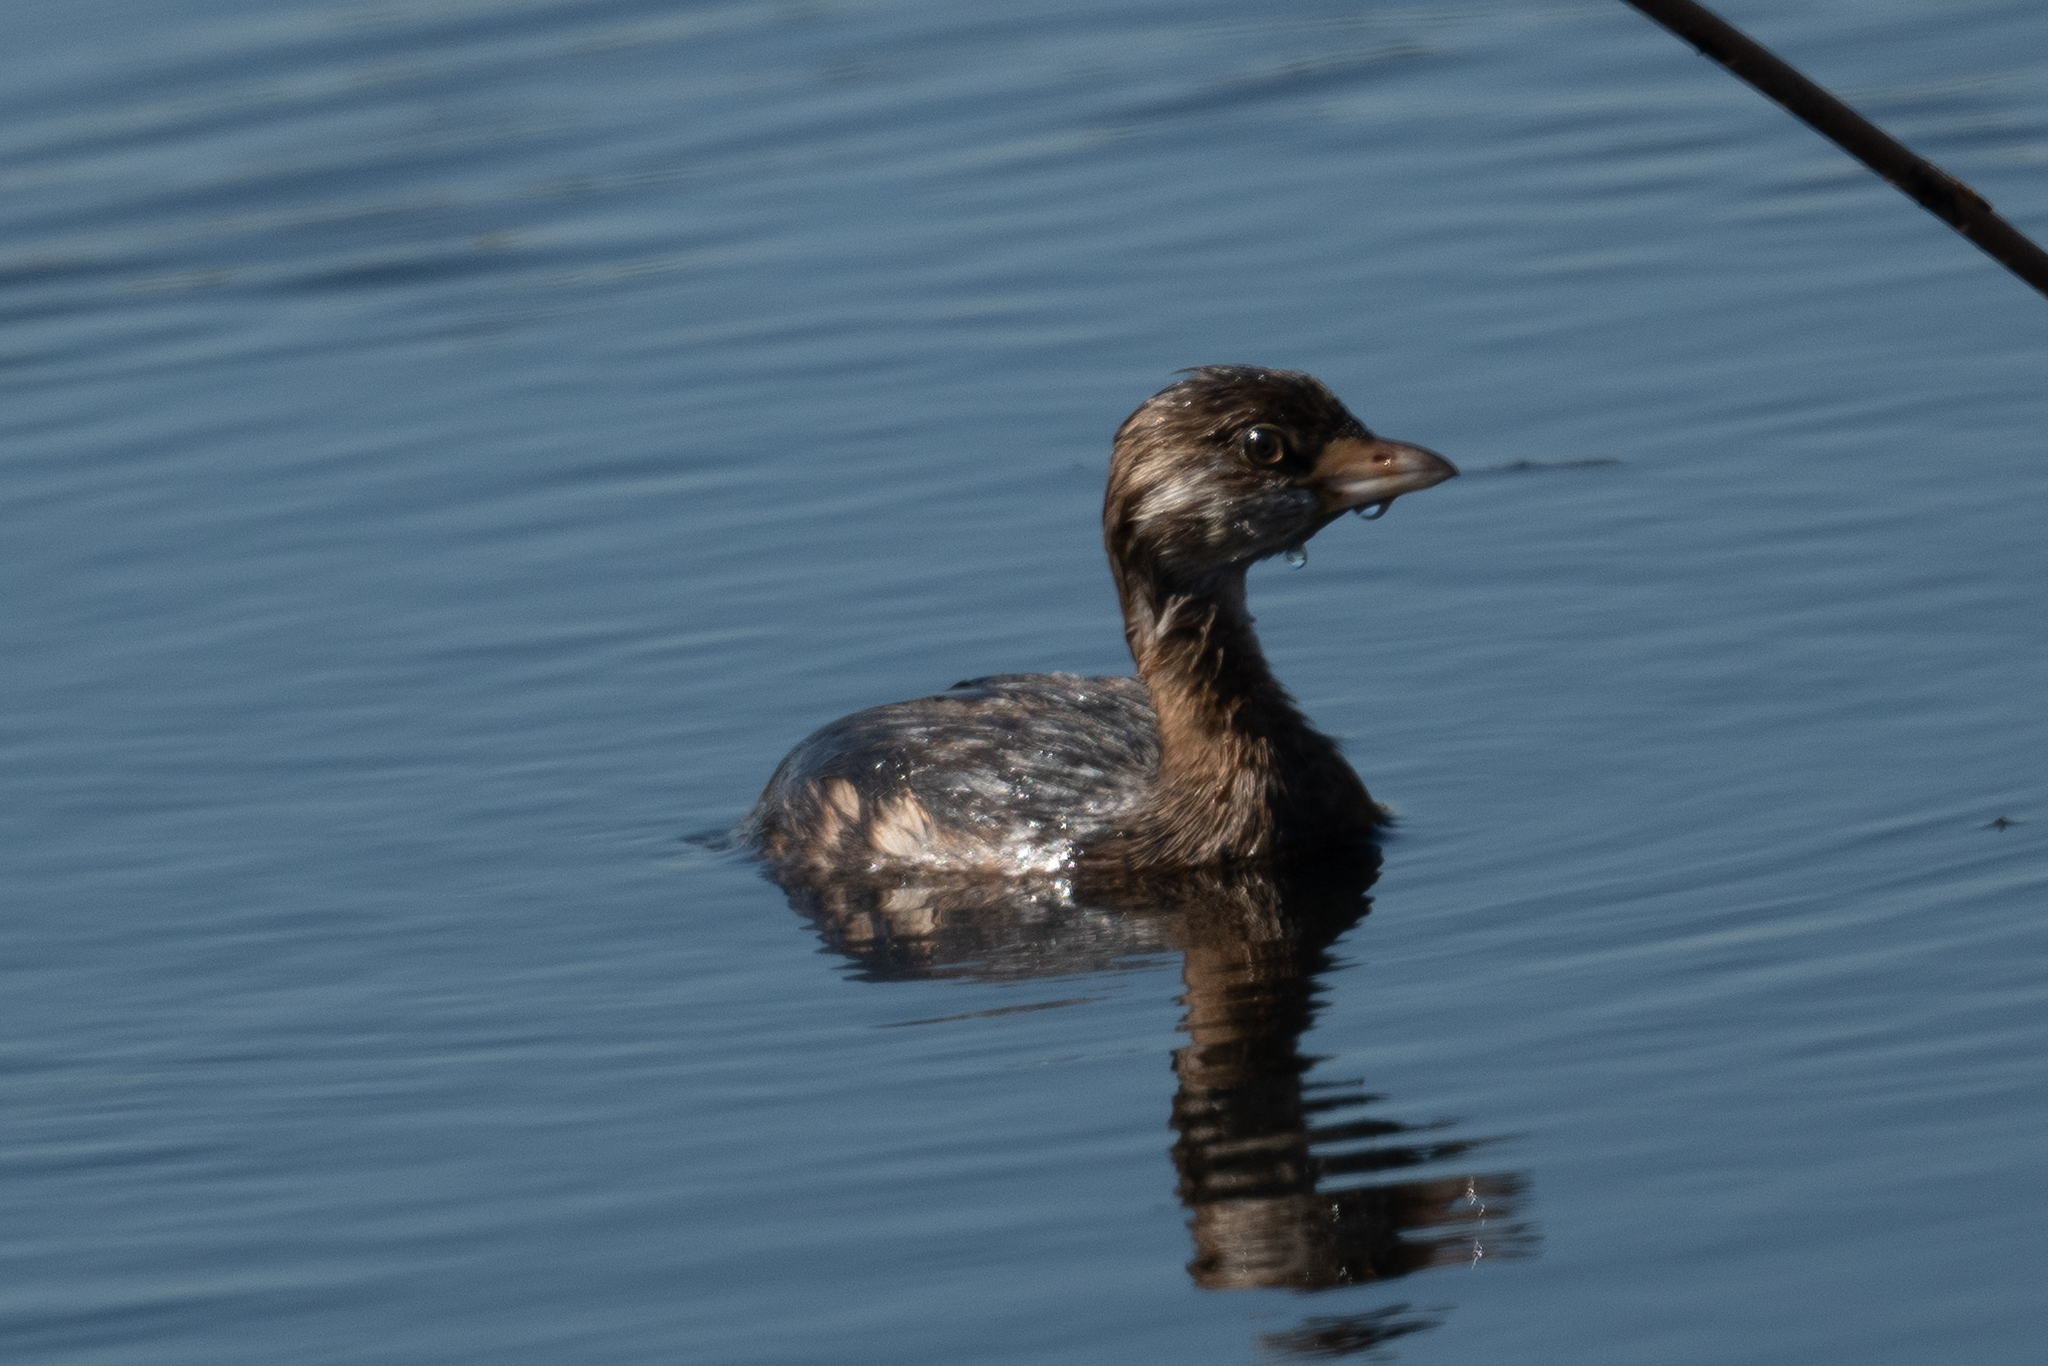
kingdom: Animalia
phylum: Chordata
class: Aves
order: Podicipediformes
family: Podicipedidae
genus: Podilymbus
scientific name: Podilymbus podiceps
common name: Pied-billed grebe
